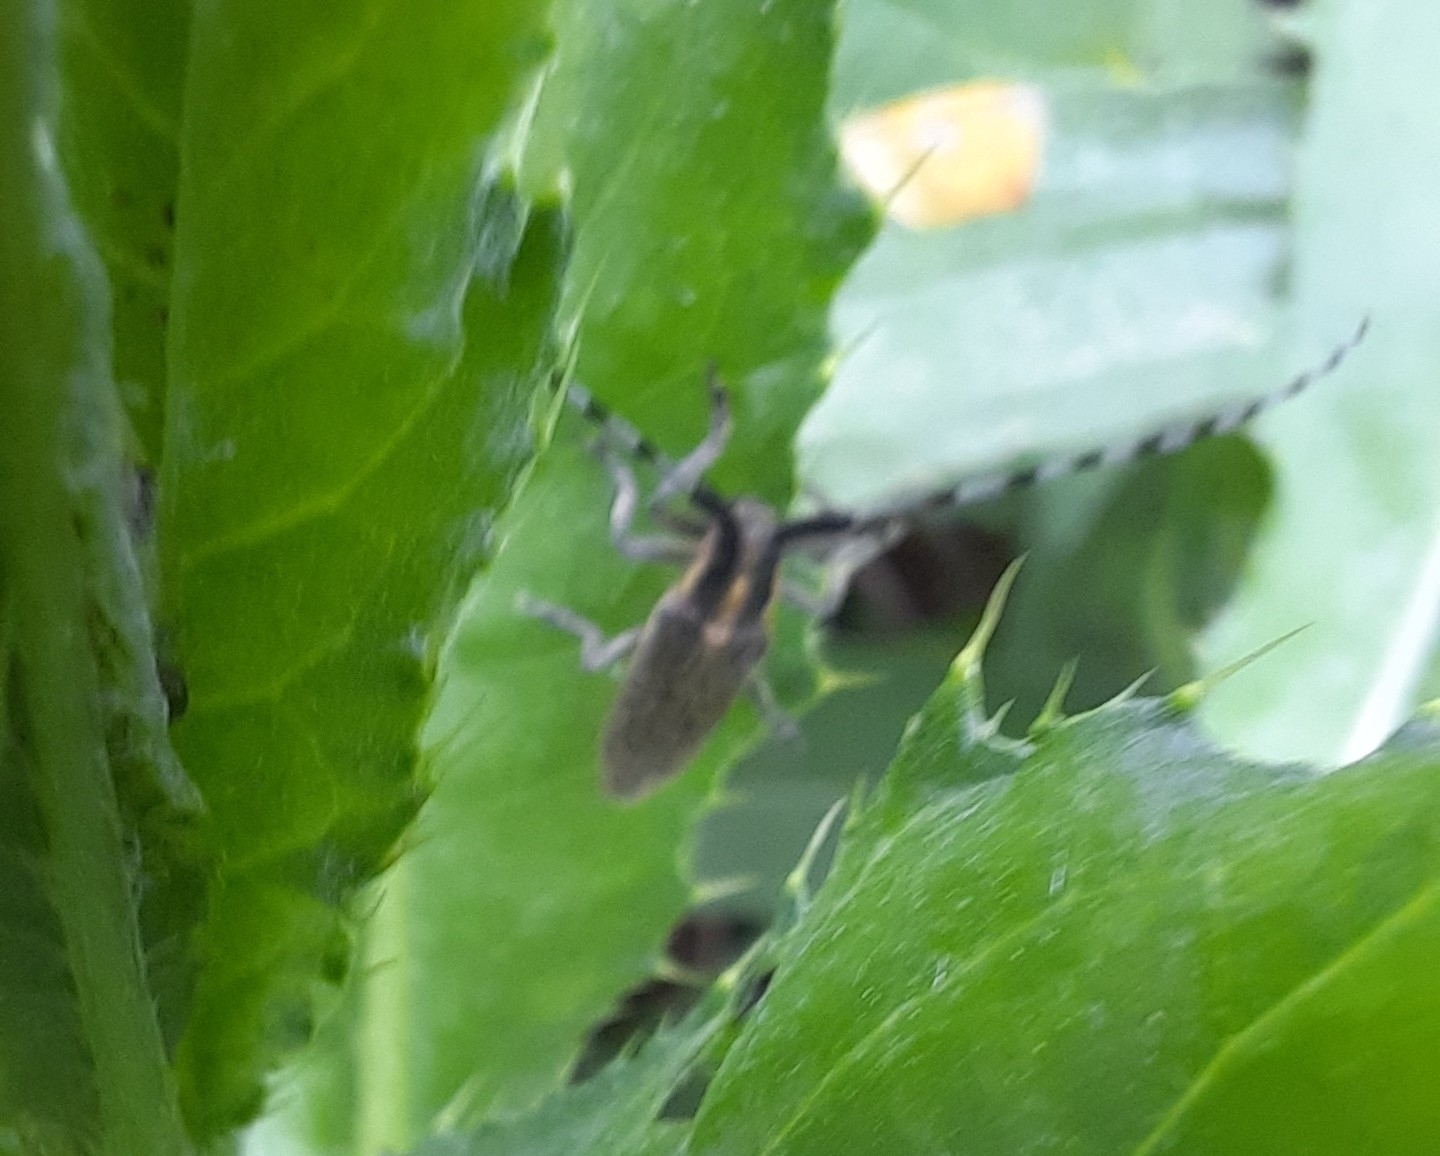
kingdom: Animalia
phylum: Arthropoda
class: Insecta
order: Coleoptera
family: Cerambycidae
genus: Agapanthia
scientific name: Agapanthia villosoviridescens
